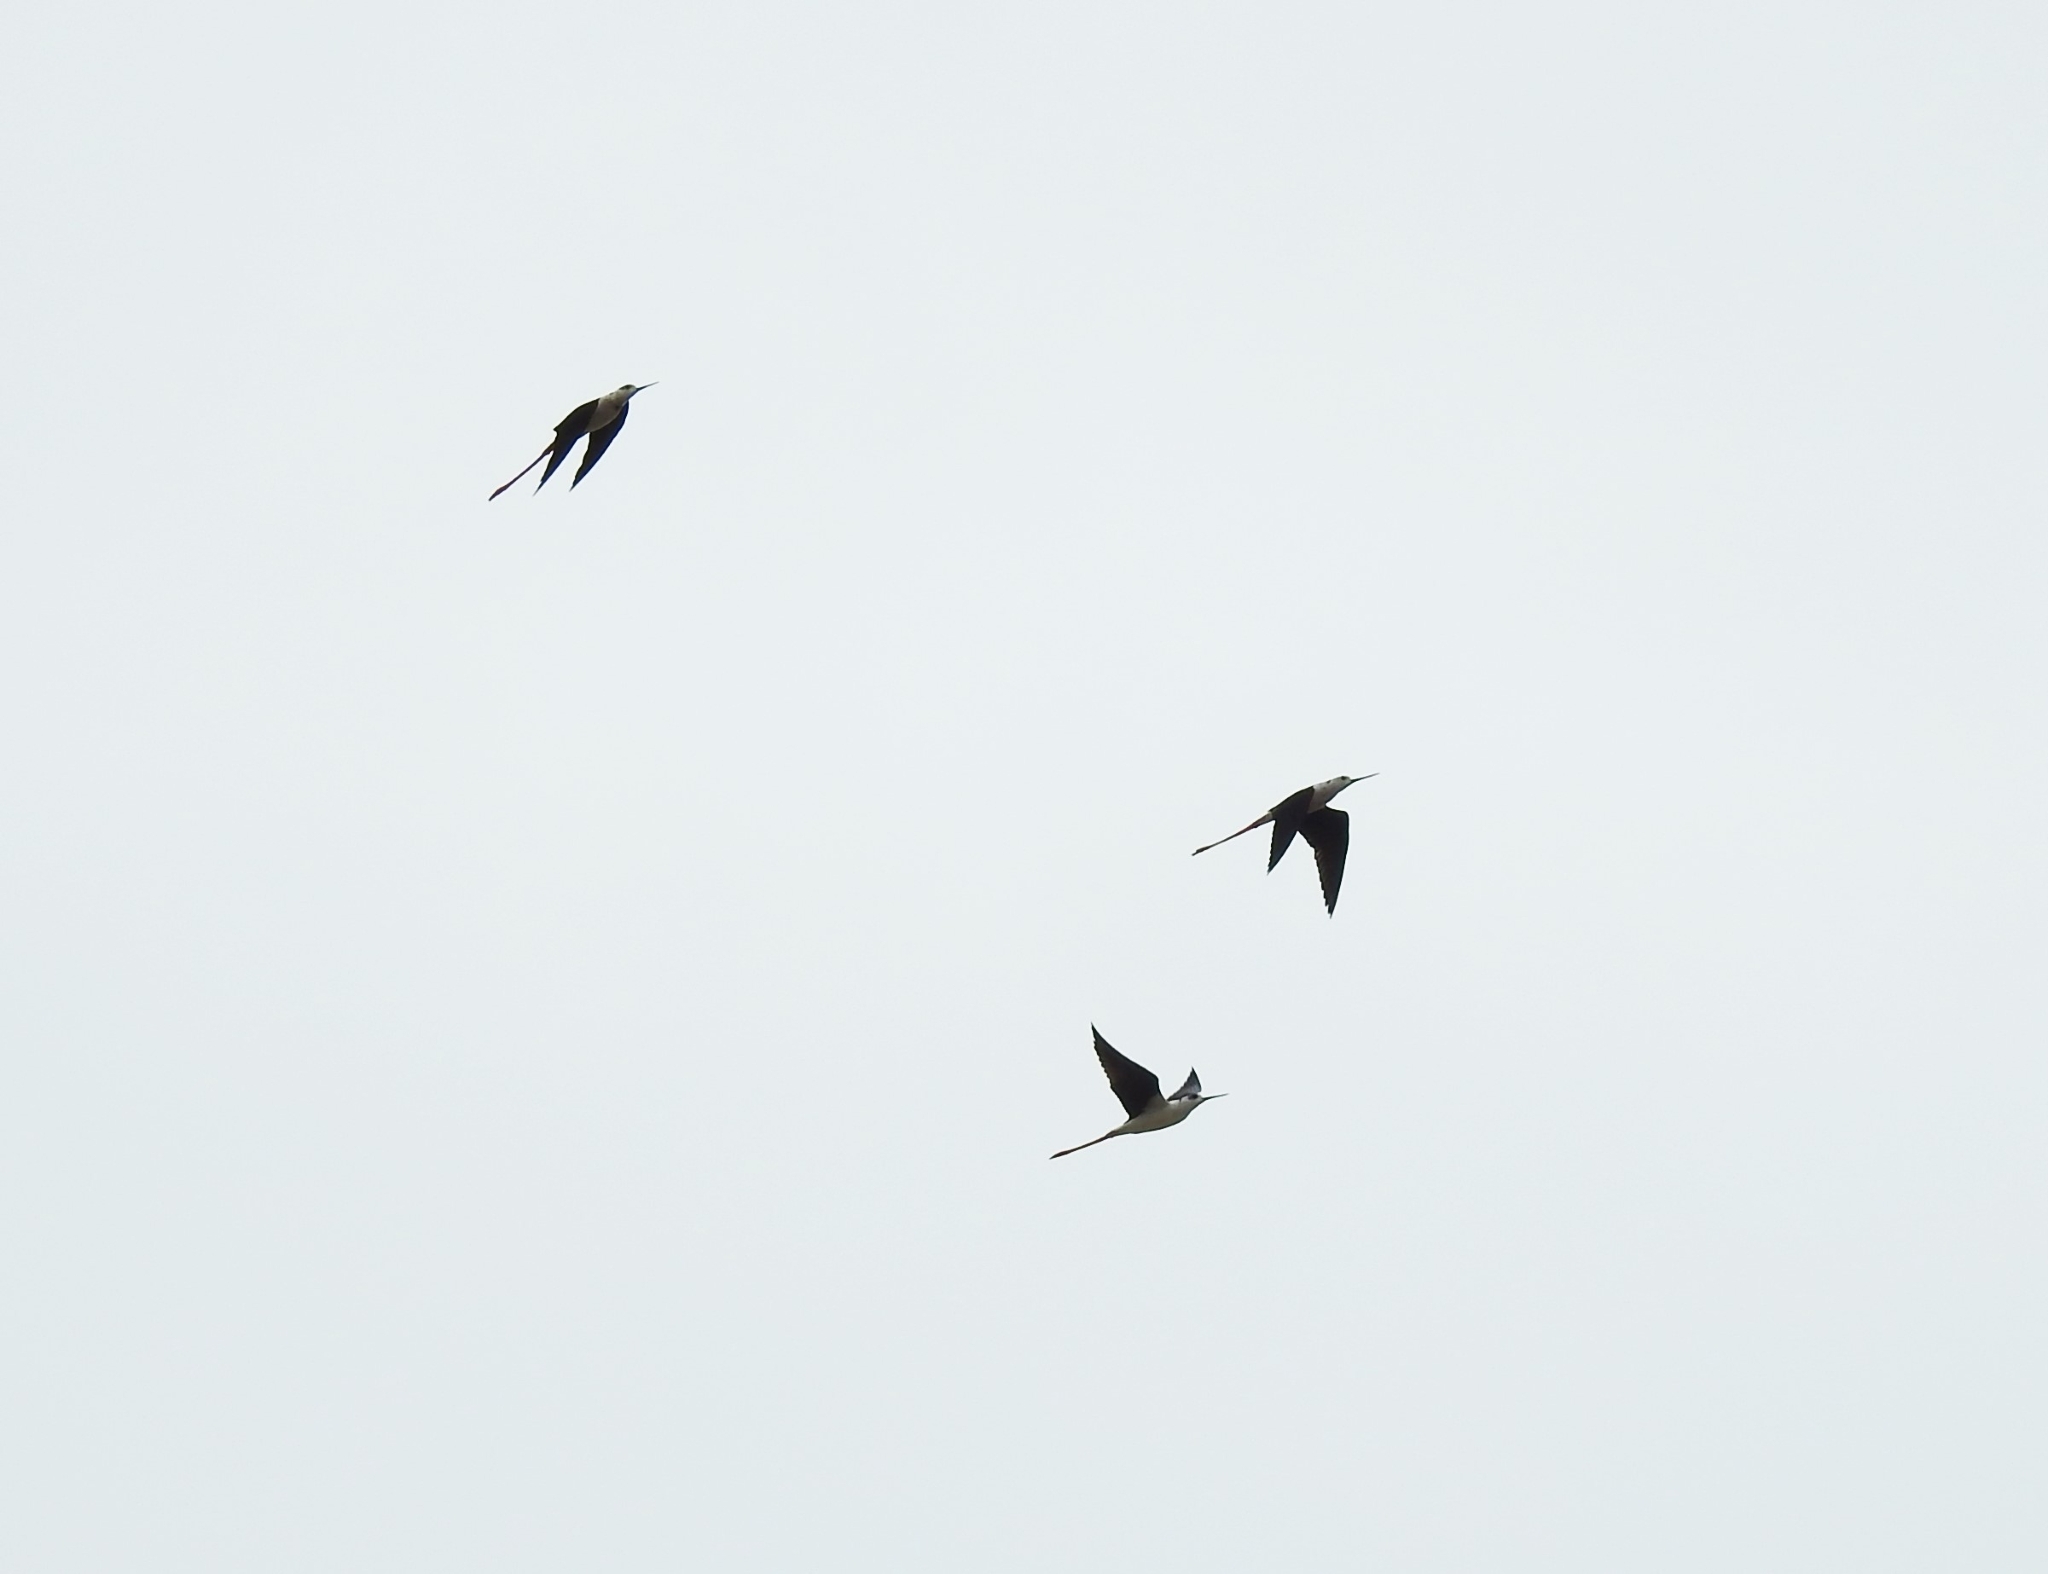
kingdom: Animalia
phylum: Chordata
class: Aves
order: Charadriiformes
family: Recurvirostridae
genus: Himantopus
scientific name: Himantopus himantopus
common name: Black-winged stilt
